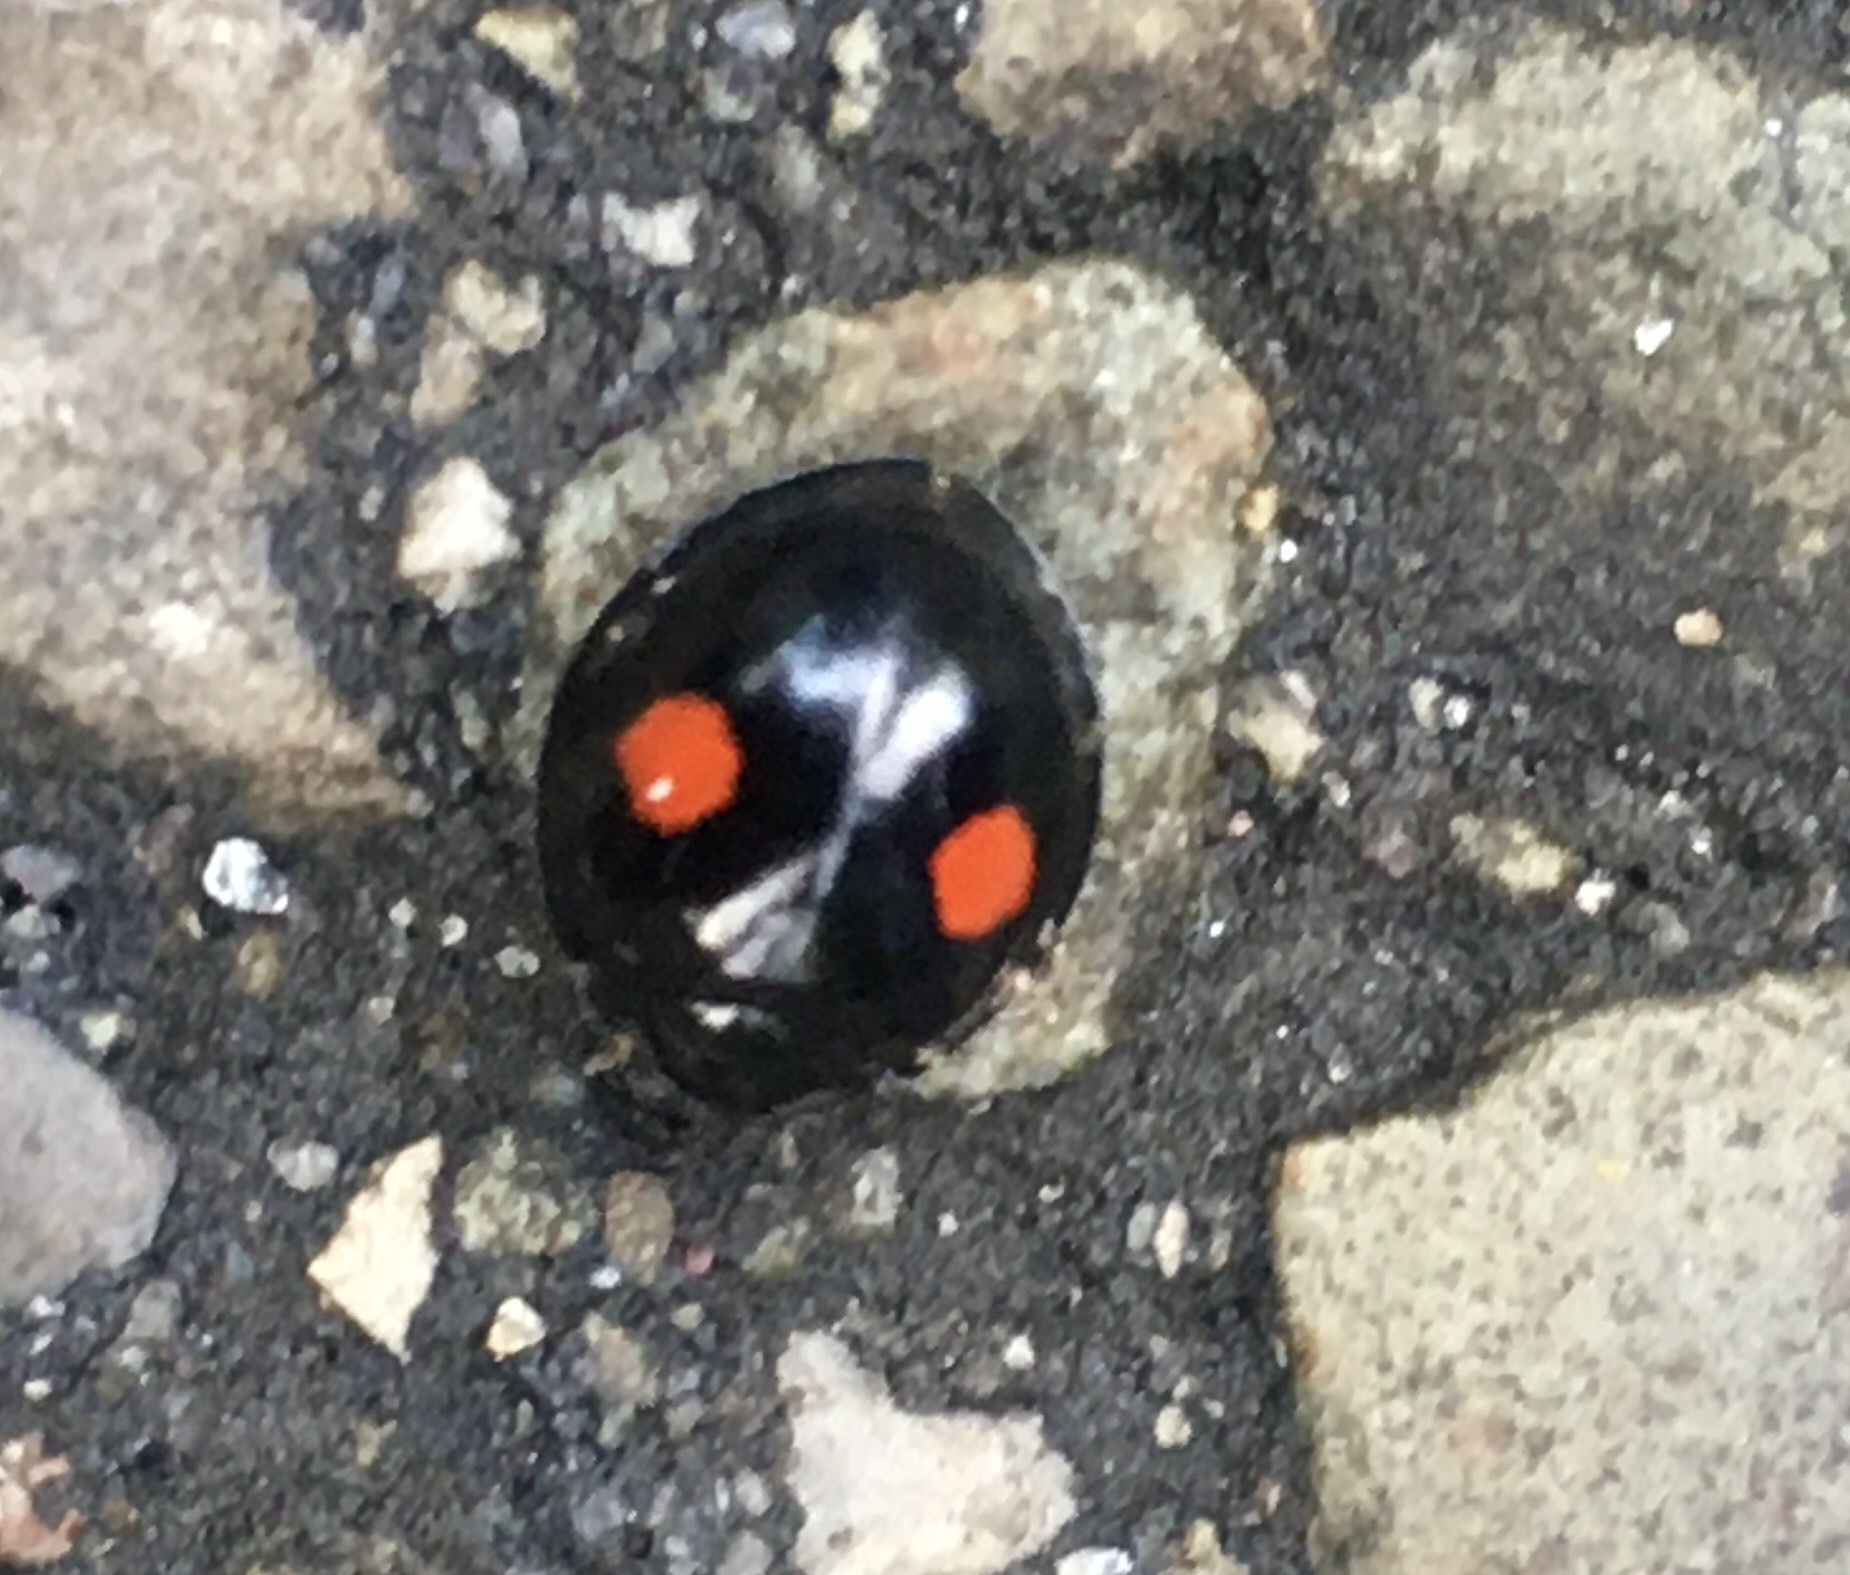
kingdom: Animalia
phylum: Arthropoda
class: Insecta
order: Coleoptera
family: Coccinellidae
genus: Chilocorus
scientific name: Chilocorus stigma
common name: Twicestabbed lady beetle
